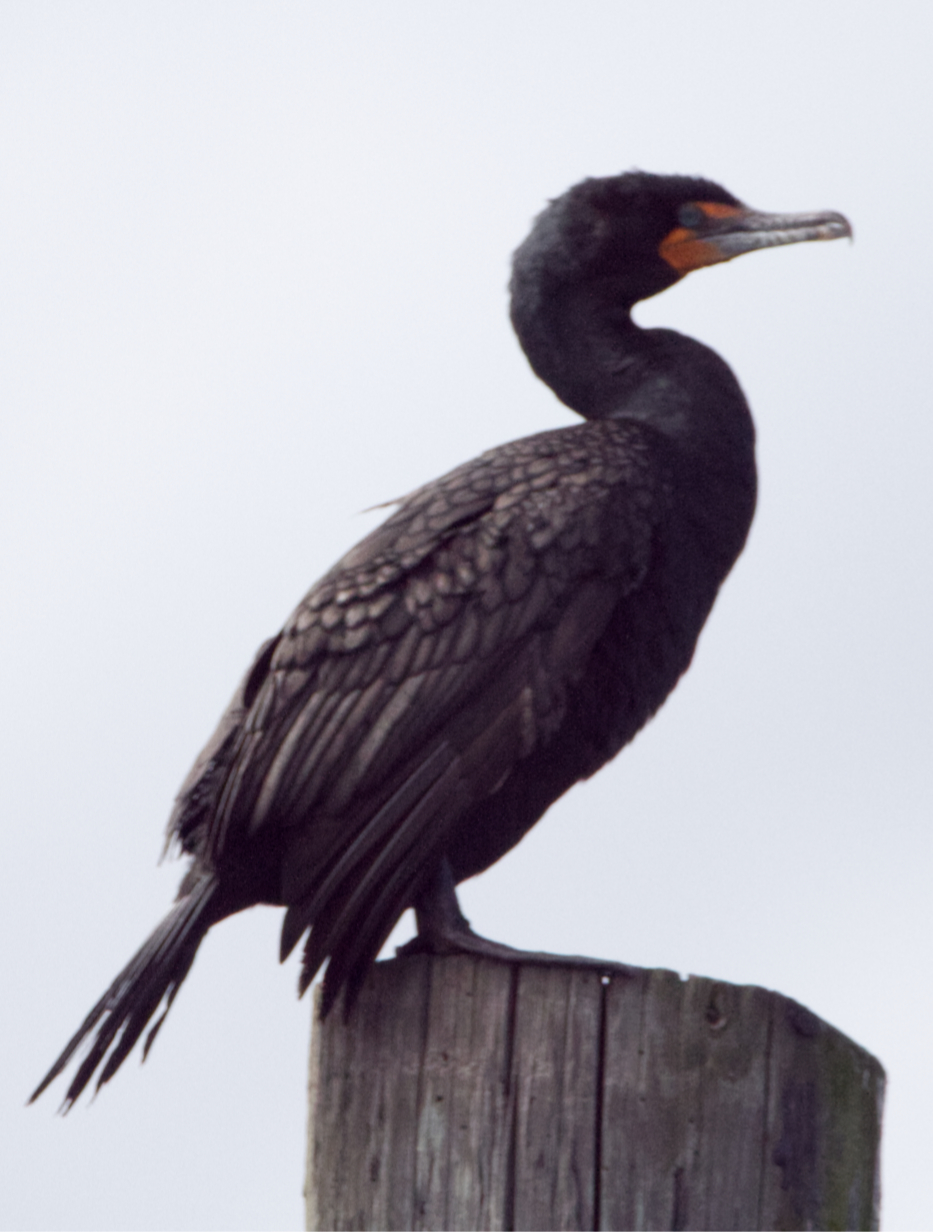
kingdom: Animalia
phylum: Chordata
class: Aves
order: Suliformes
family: Phalacrocoracidae
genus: Phalacrocorax
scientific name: Phalacrocorax auritus
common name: Double-crested cormorant
